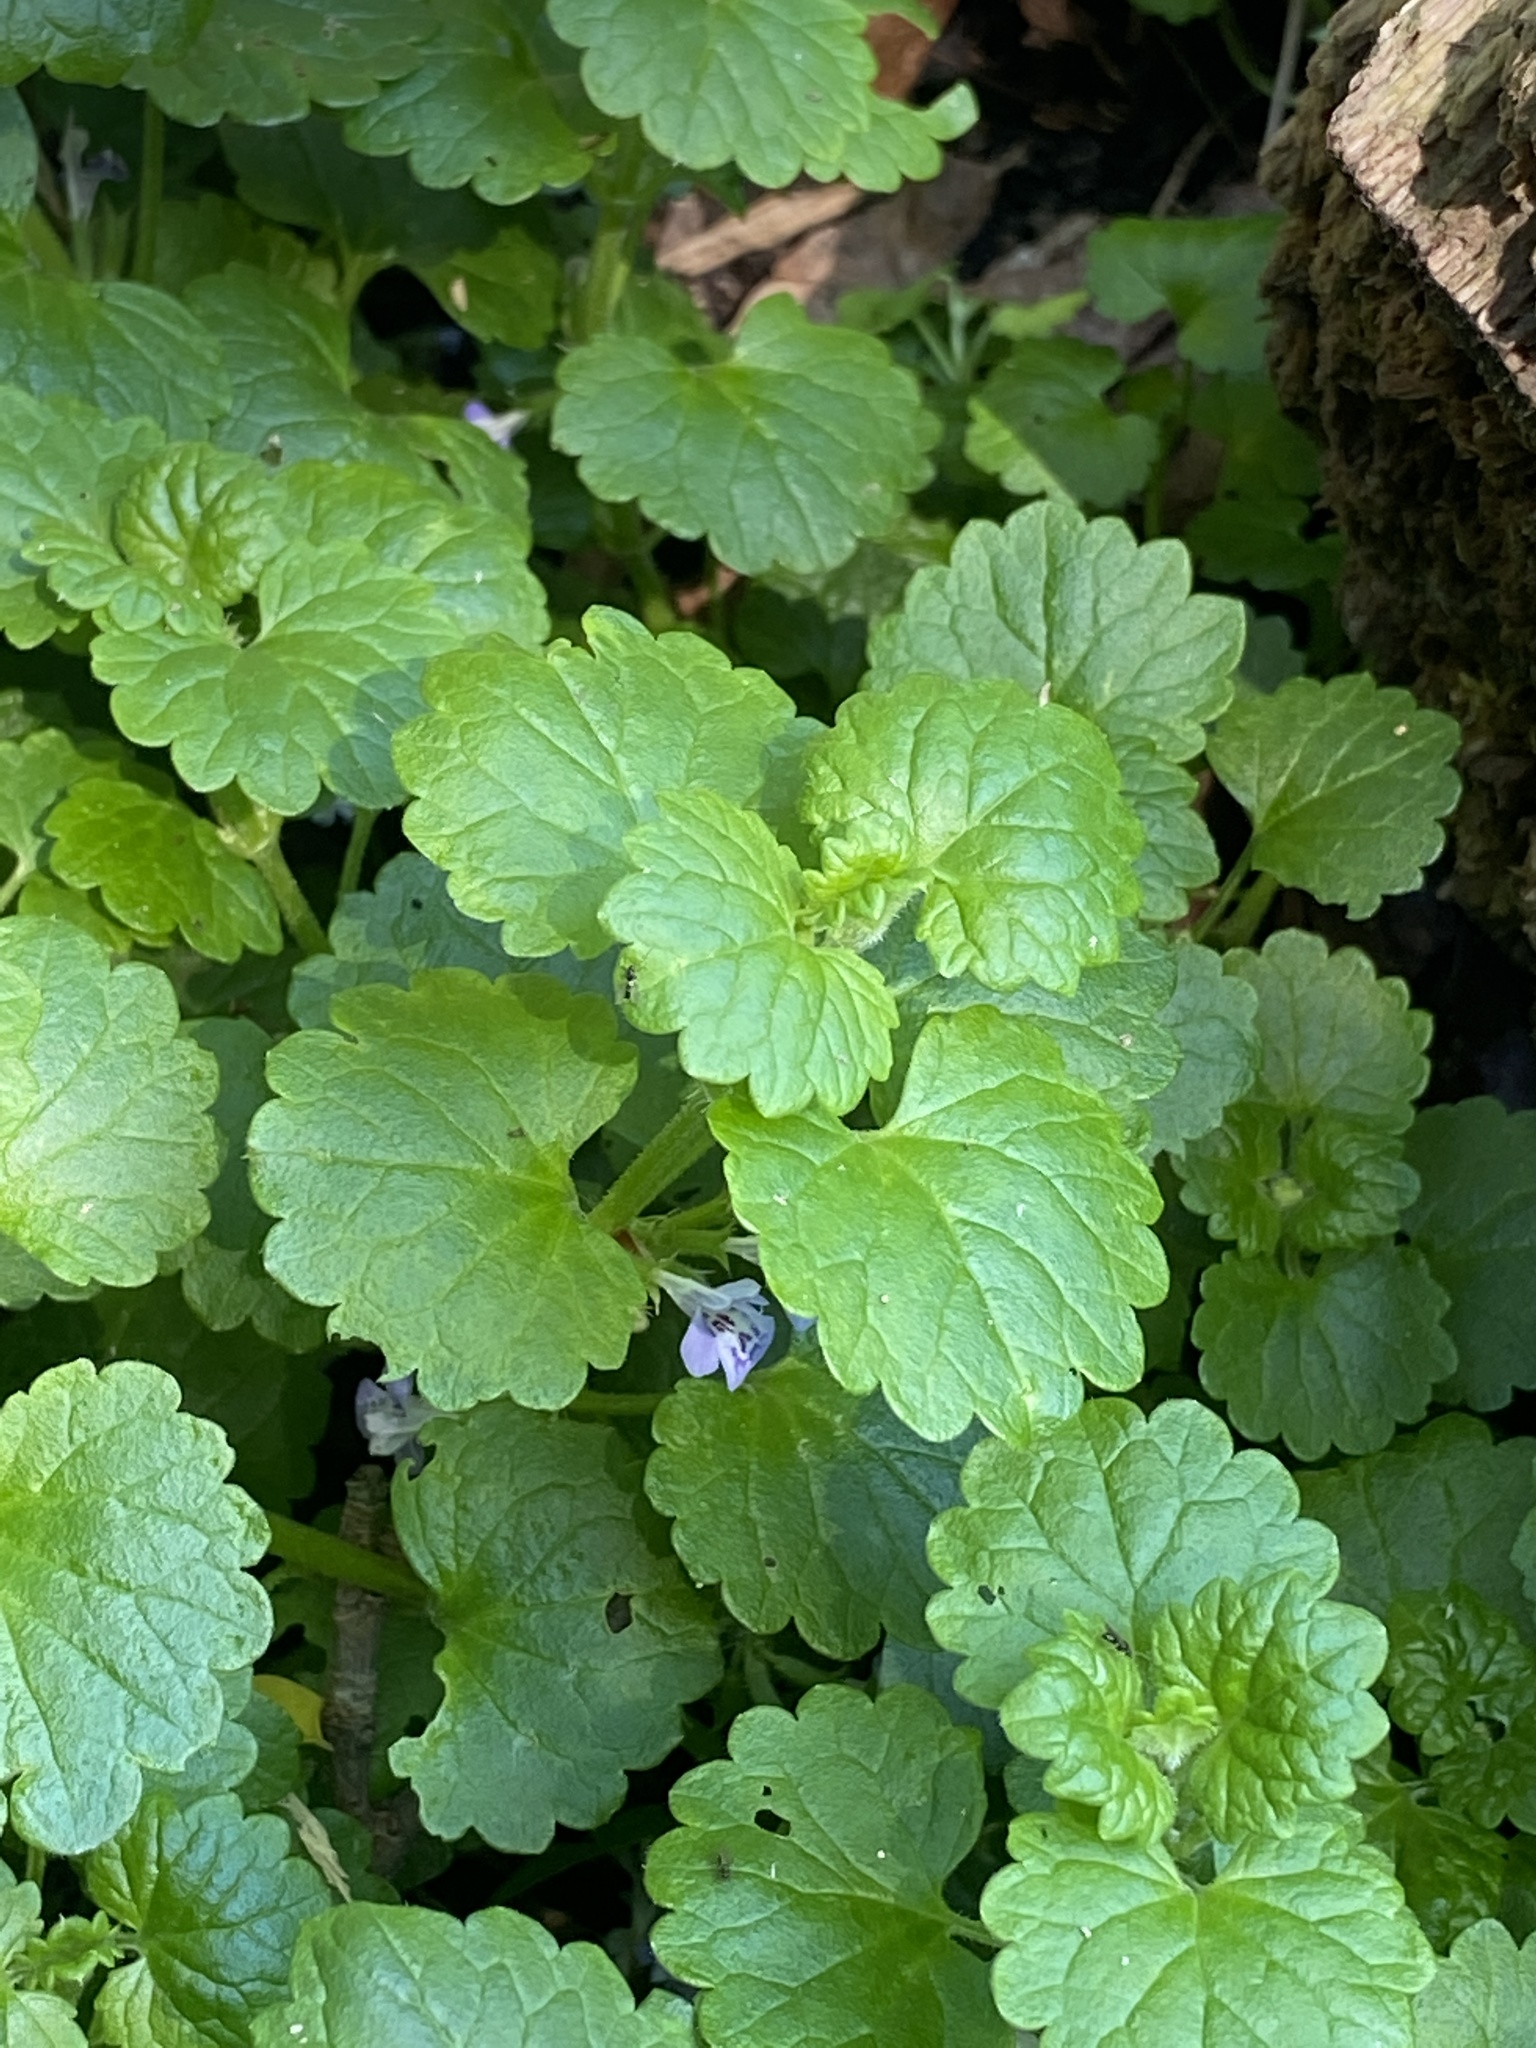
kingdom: Plantae
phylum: Tracheophyta
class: Magnoliopsida
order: Lamiales
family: Lamiaceae
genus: Glechoma
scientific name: Glechoma hederacea
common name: Ground ivy
